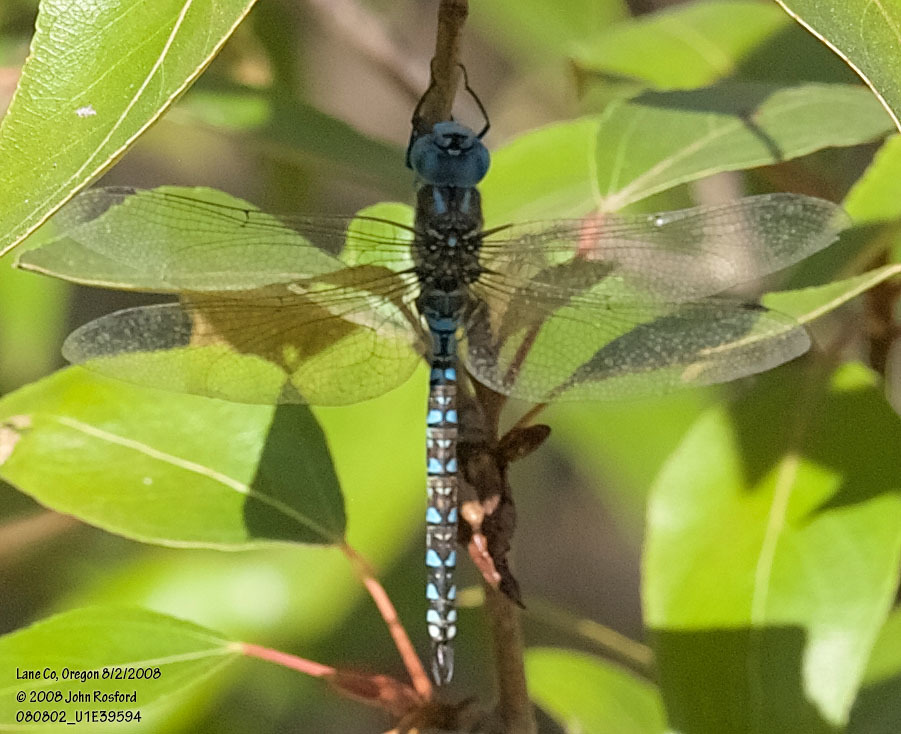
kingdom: Animalia
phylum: Arthropoda
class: Insecta
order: Odonata
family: Aeshnidae
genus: Rhionaeschna
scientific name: Rhionaeschna multicolor
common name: Blue-eyed darner
